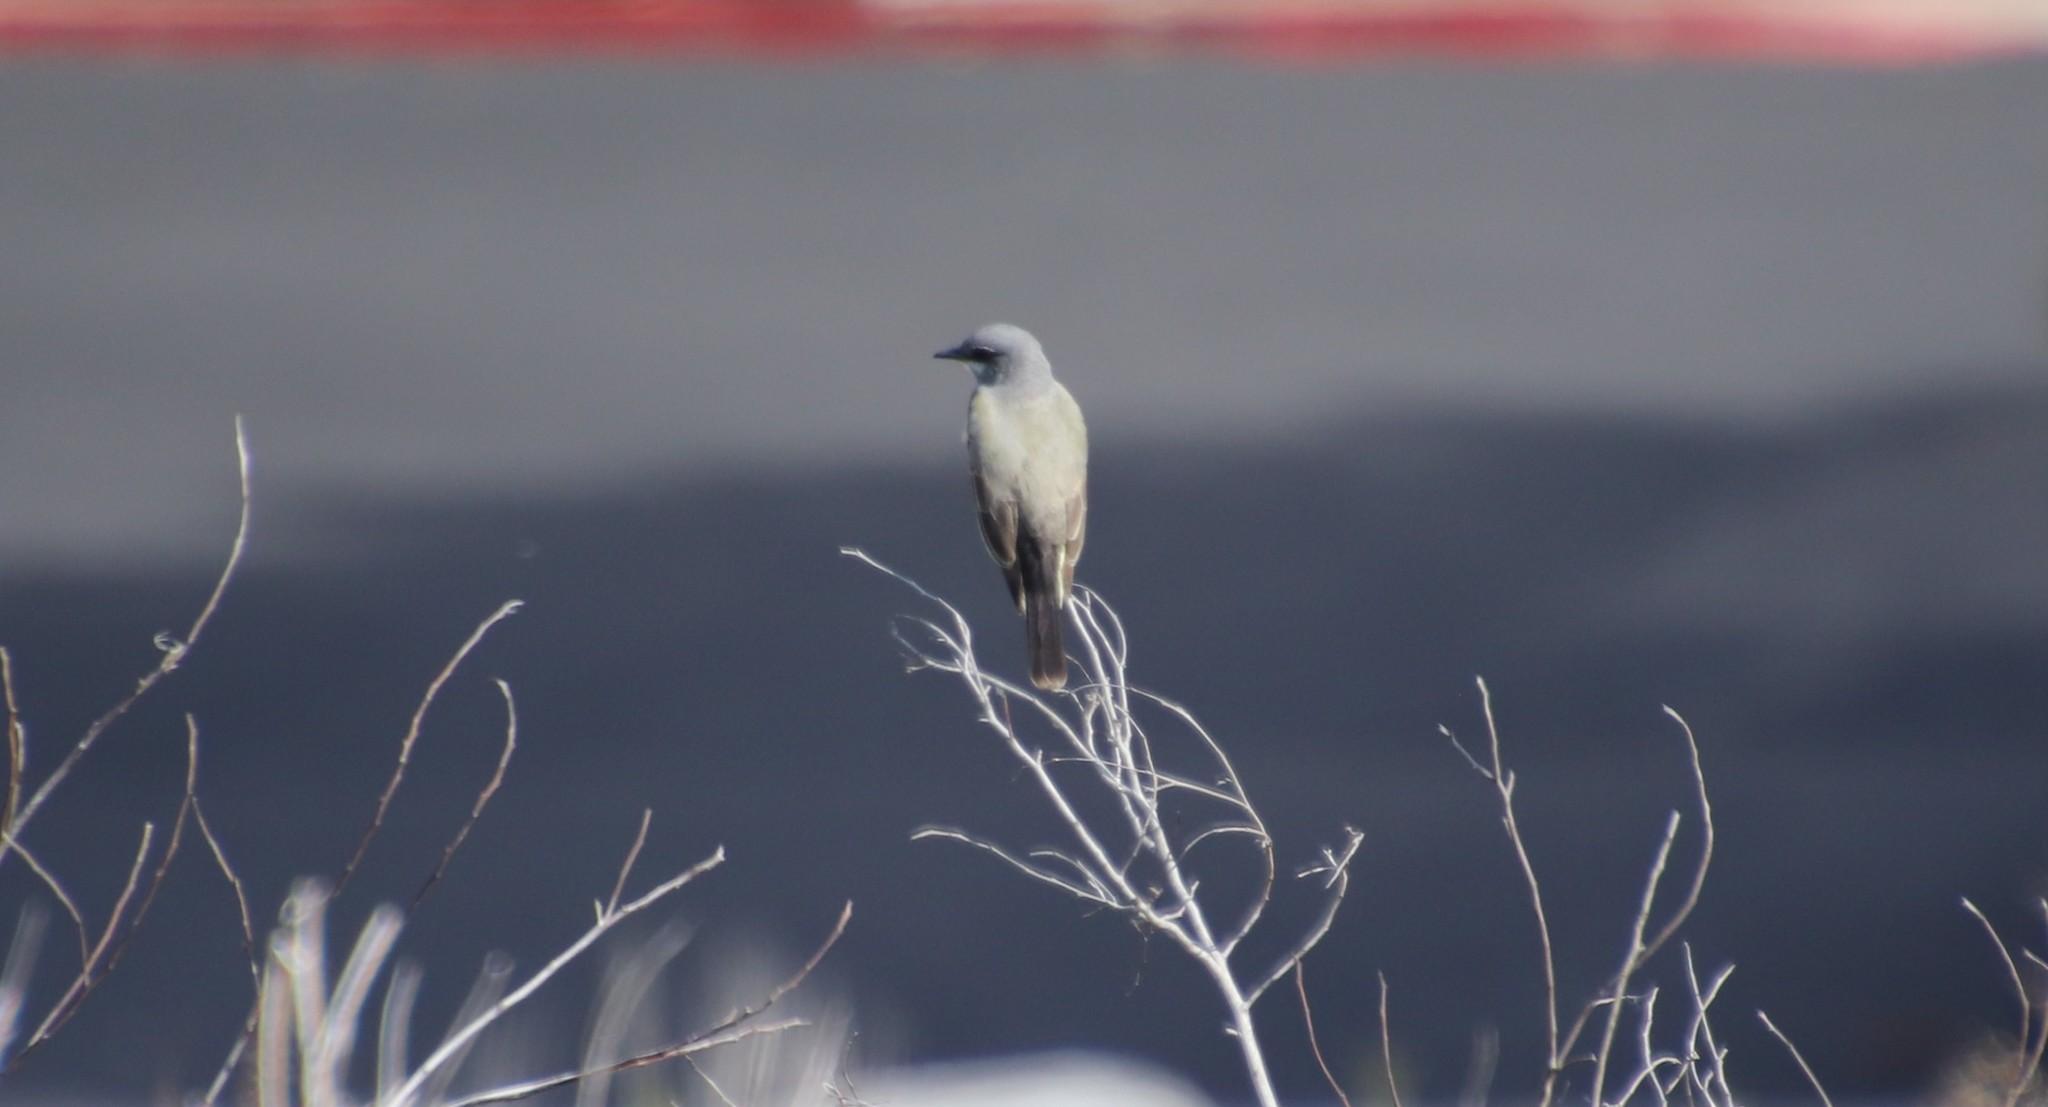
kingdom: Animalia
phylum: Chordata
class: Aves
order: Passeriformes
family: Tyrannidae
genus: Tyrannus
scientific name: Tyrannus vociferans
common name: Cassin's kingbird
